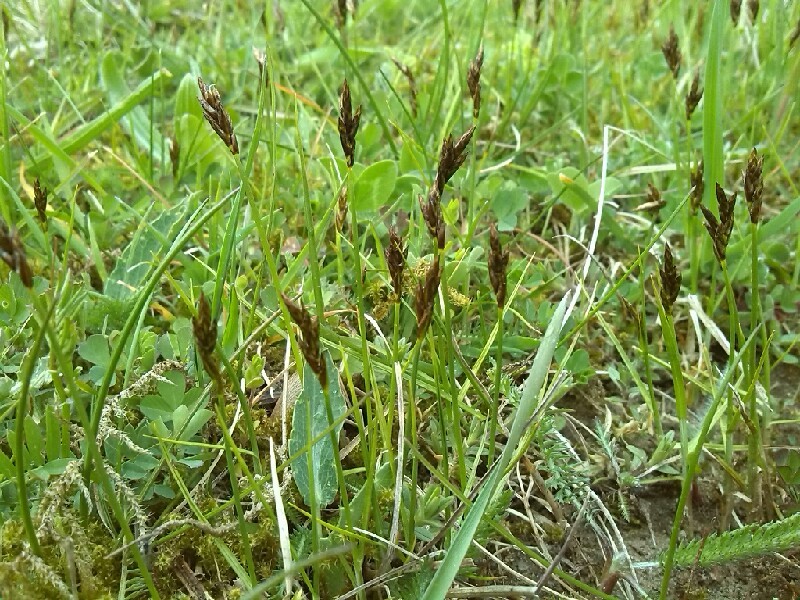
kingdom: Plantae
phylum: Tracheophyta
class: Liliopsida
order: Poales
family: Cyperaceae
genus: Carex
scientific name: Carex praecox
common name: Early sedge
